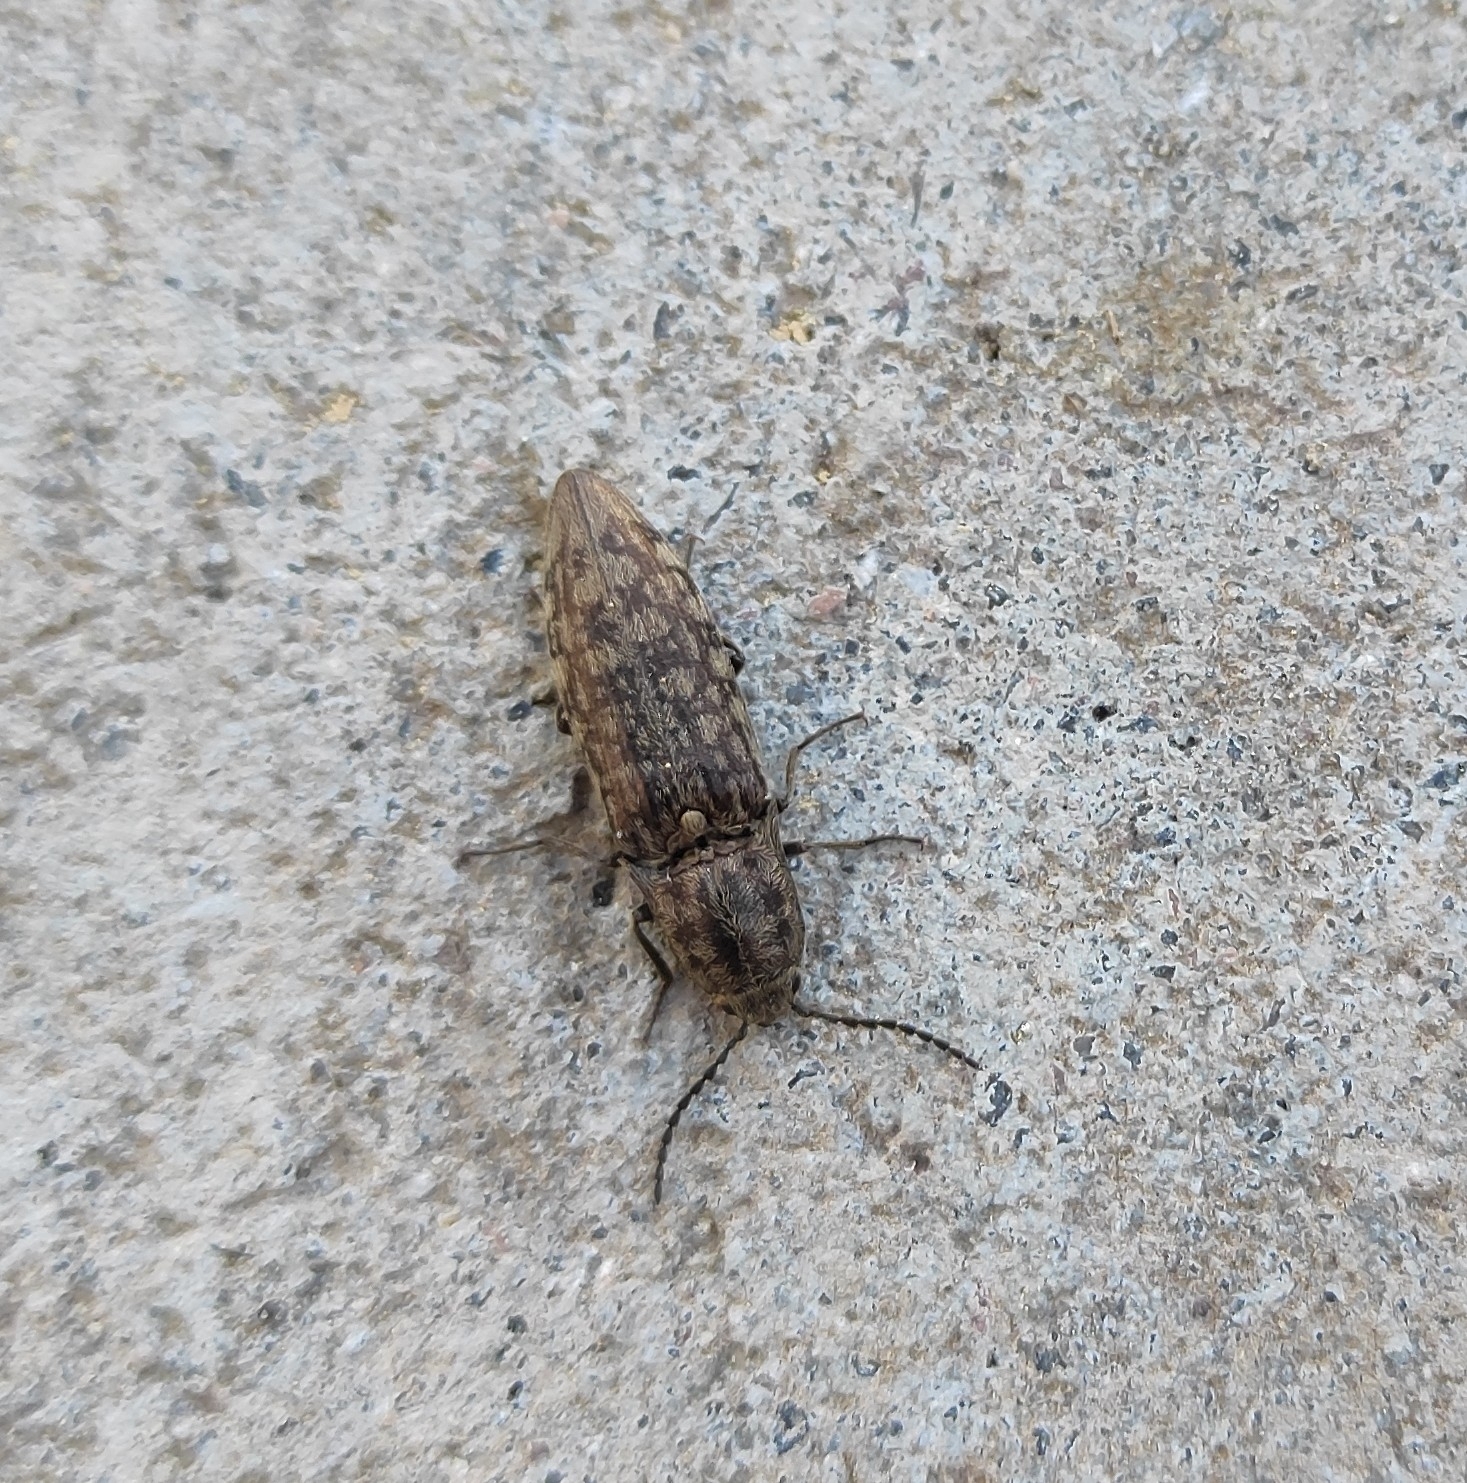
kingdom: Animalia
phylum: Arthropoda
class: Insecta
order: Coleoptera
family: Elateridae
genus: Actenicerus
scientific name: Actenicerus sjaelandicus
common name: Marsh click beetle
